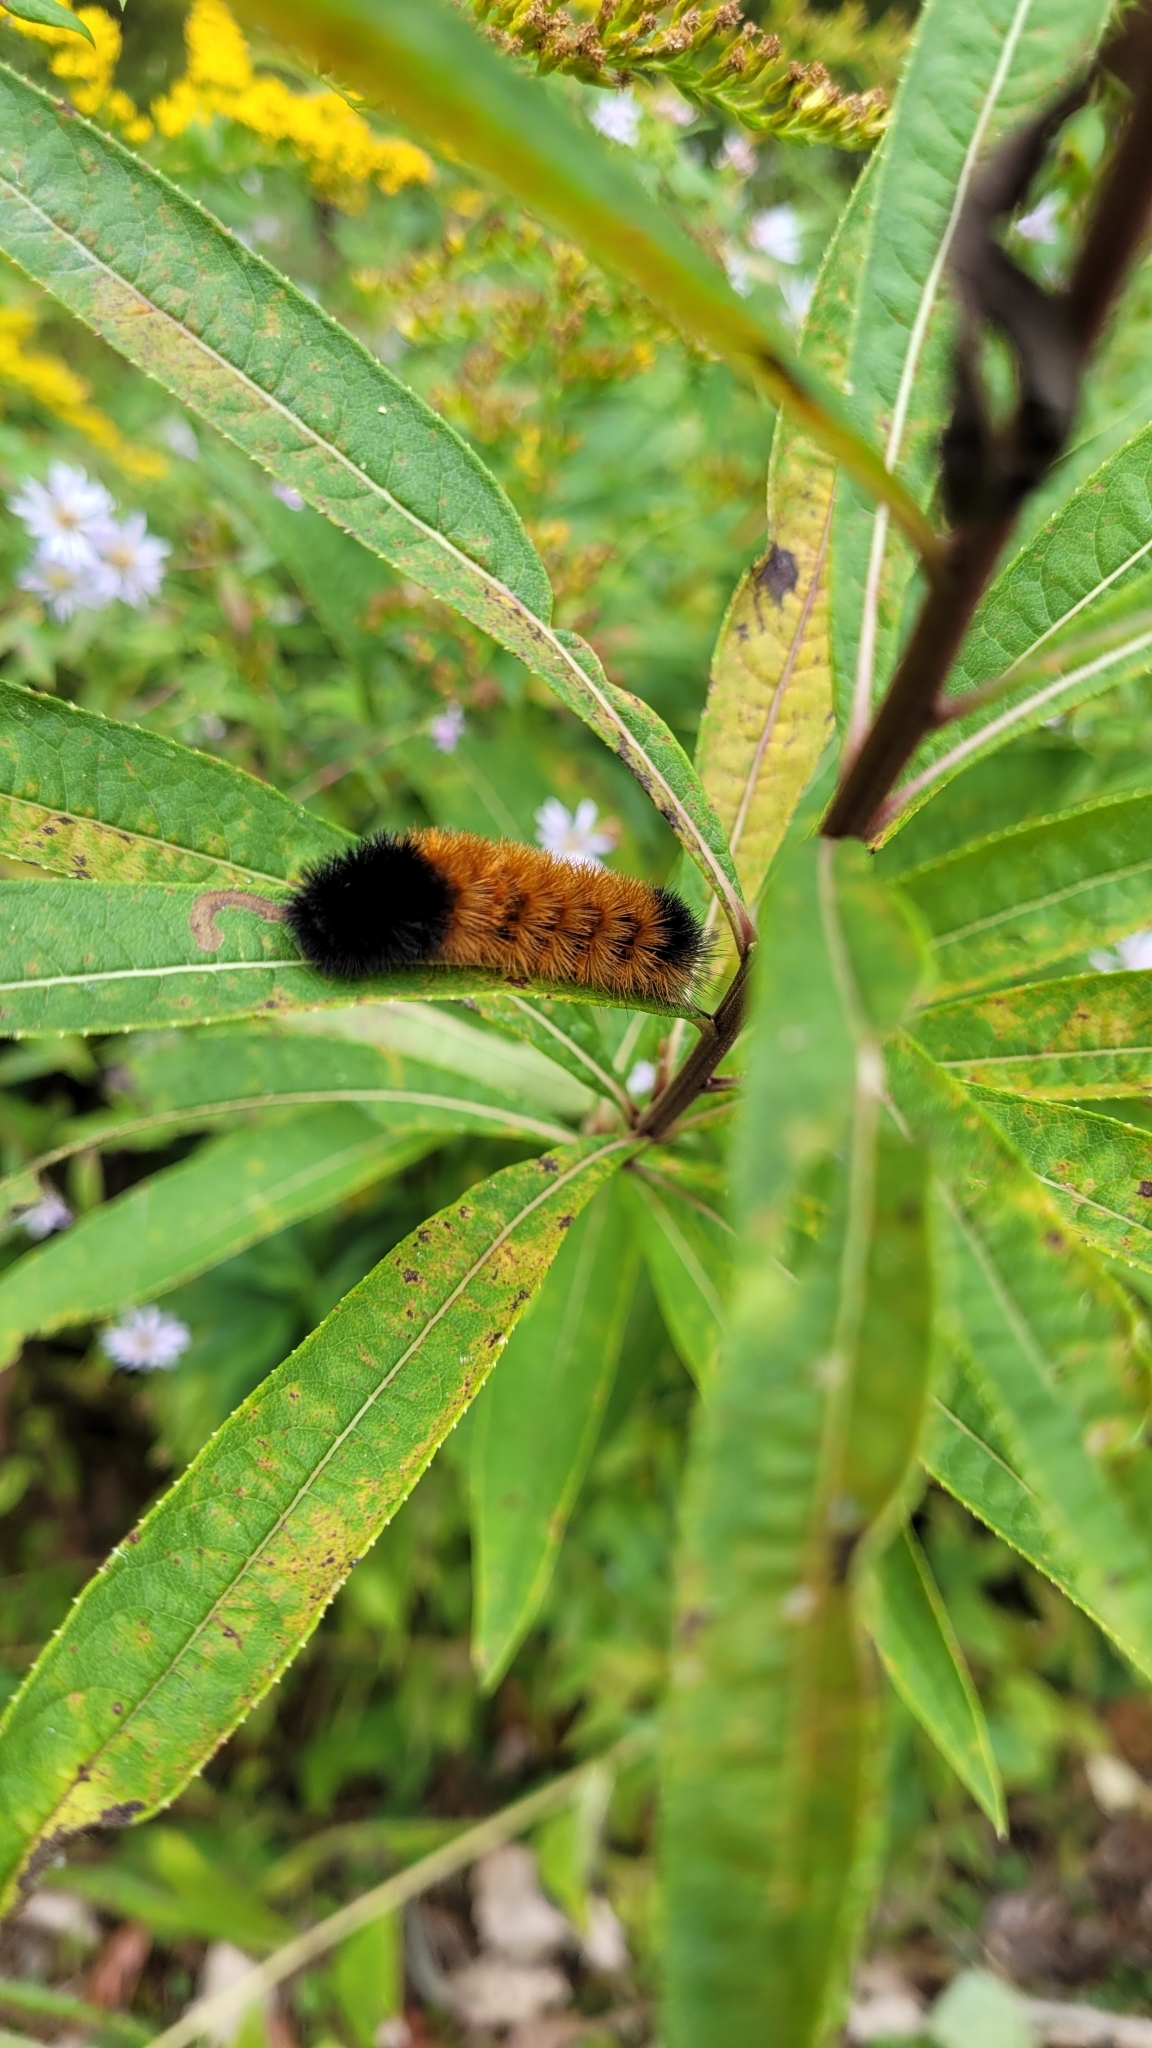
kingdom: Animalia
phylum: Arthropoda
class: Insecta
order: Lepidoptera
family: Erebidae
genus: Pyrrharctia
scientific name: Pyrrharctia isabella
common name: Isabella tiger moth
